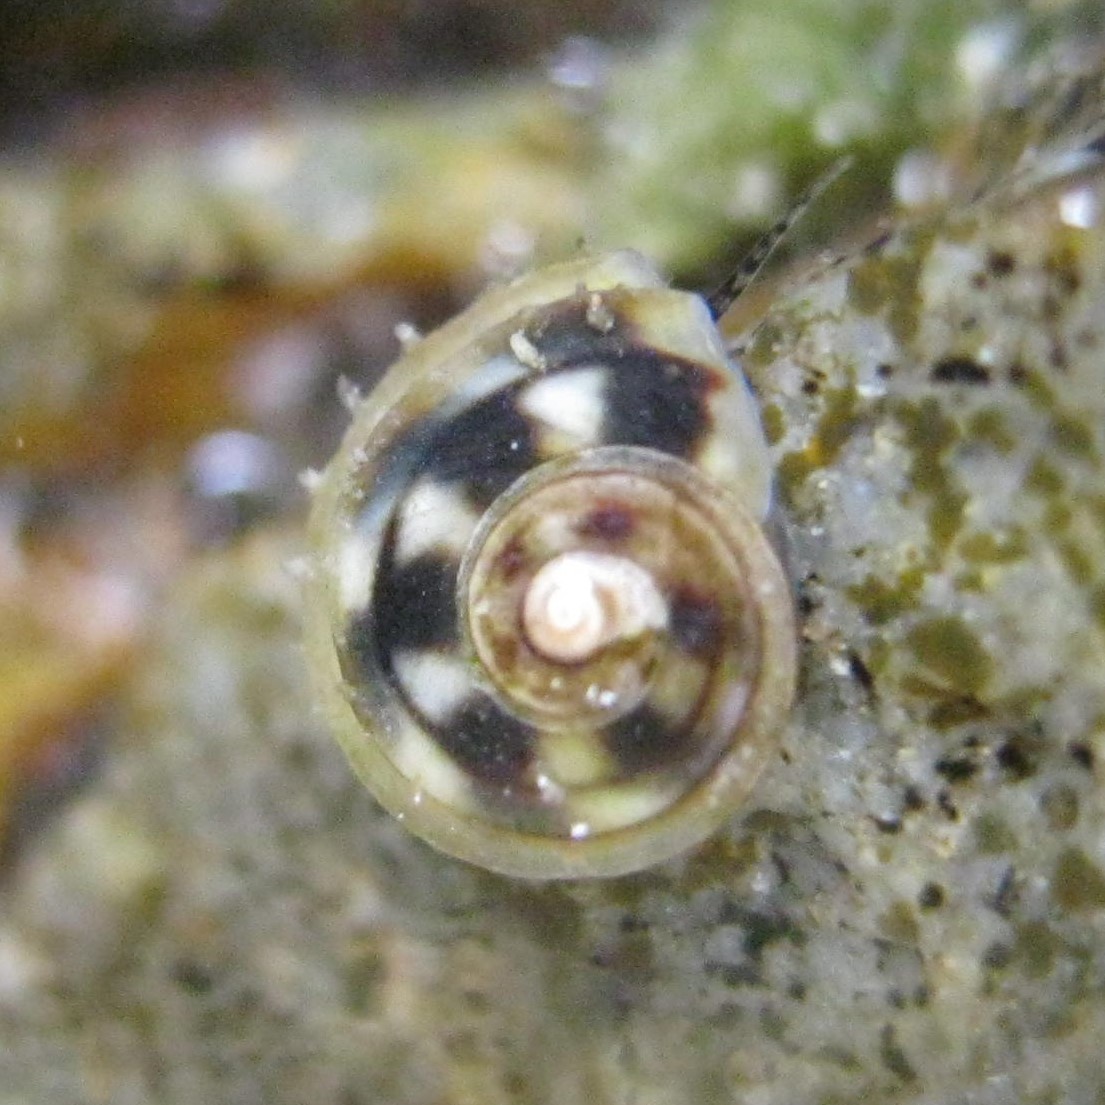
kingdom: Animalia
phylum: Mollusca
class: Gastropoda
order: Littorinimorpha
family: Littorinidae
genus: Risellopsis
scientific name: Risellopsis varia
